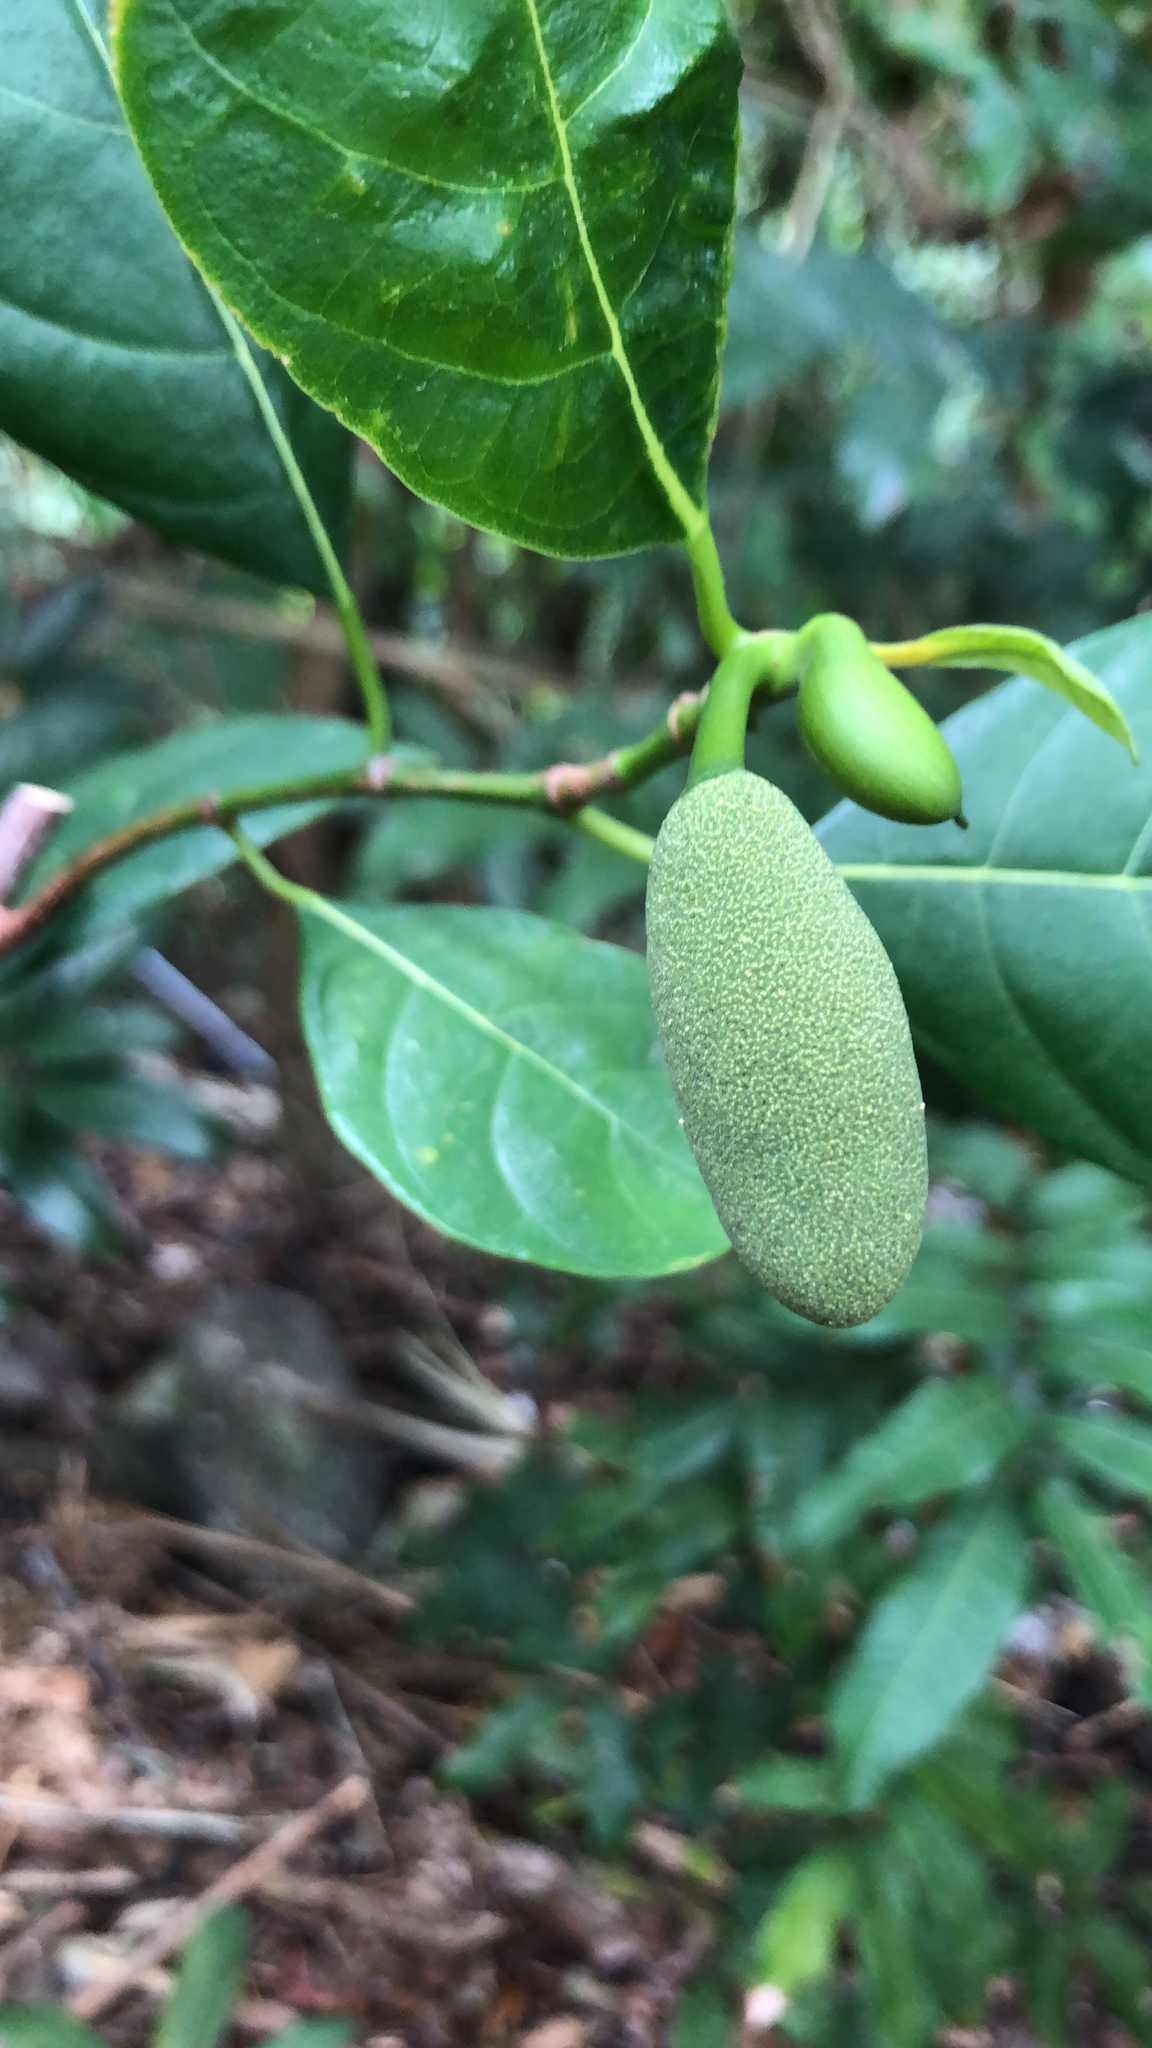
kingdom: Plantae
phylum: Tracheophyta
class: Magnoliopsida
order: Rosales
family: Moraceae
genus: Artocarpus
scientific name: Artocarpus heterophyllus
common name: Jackfruit
